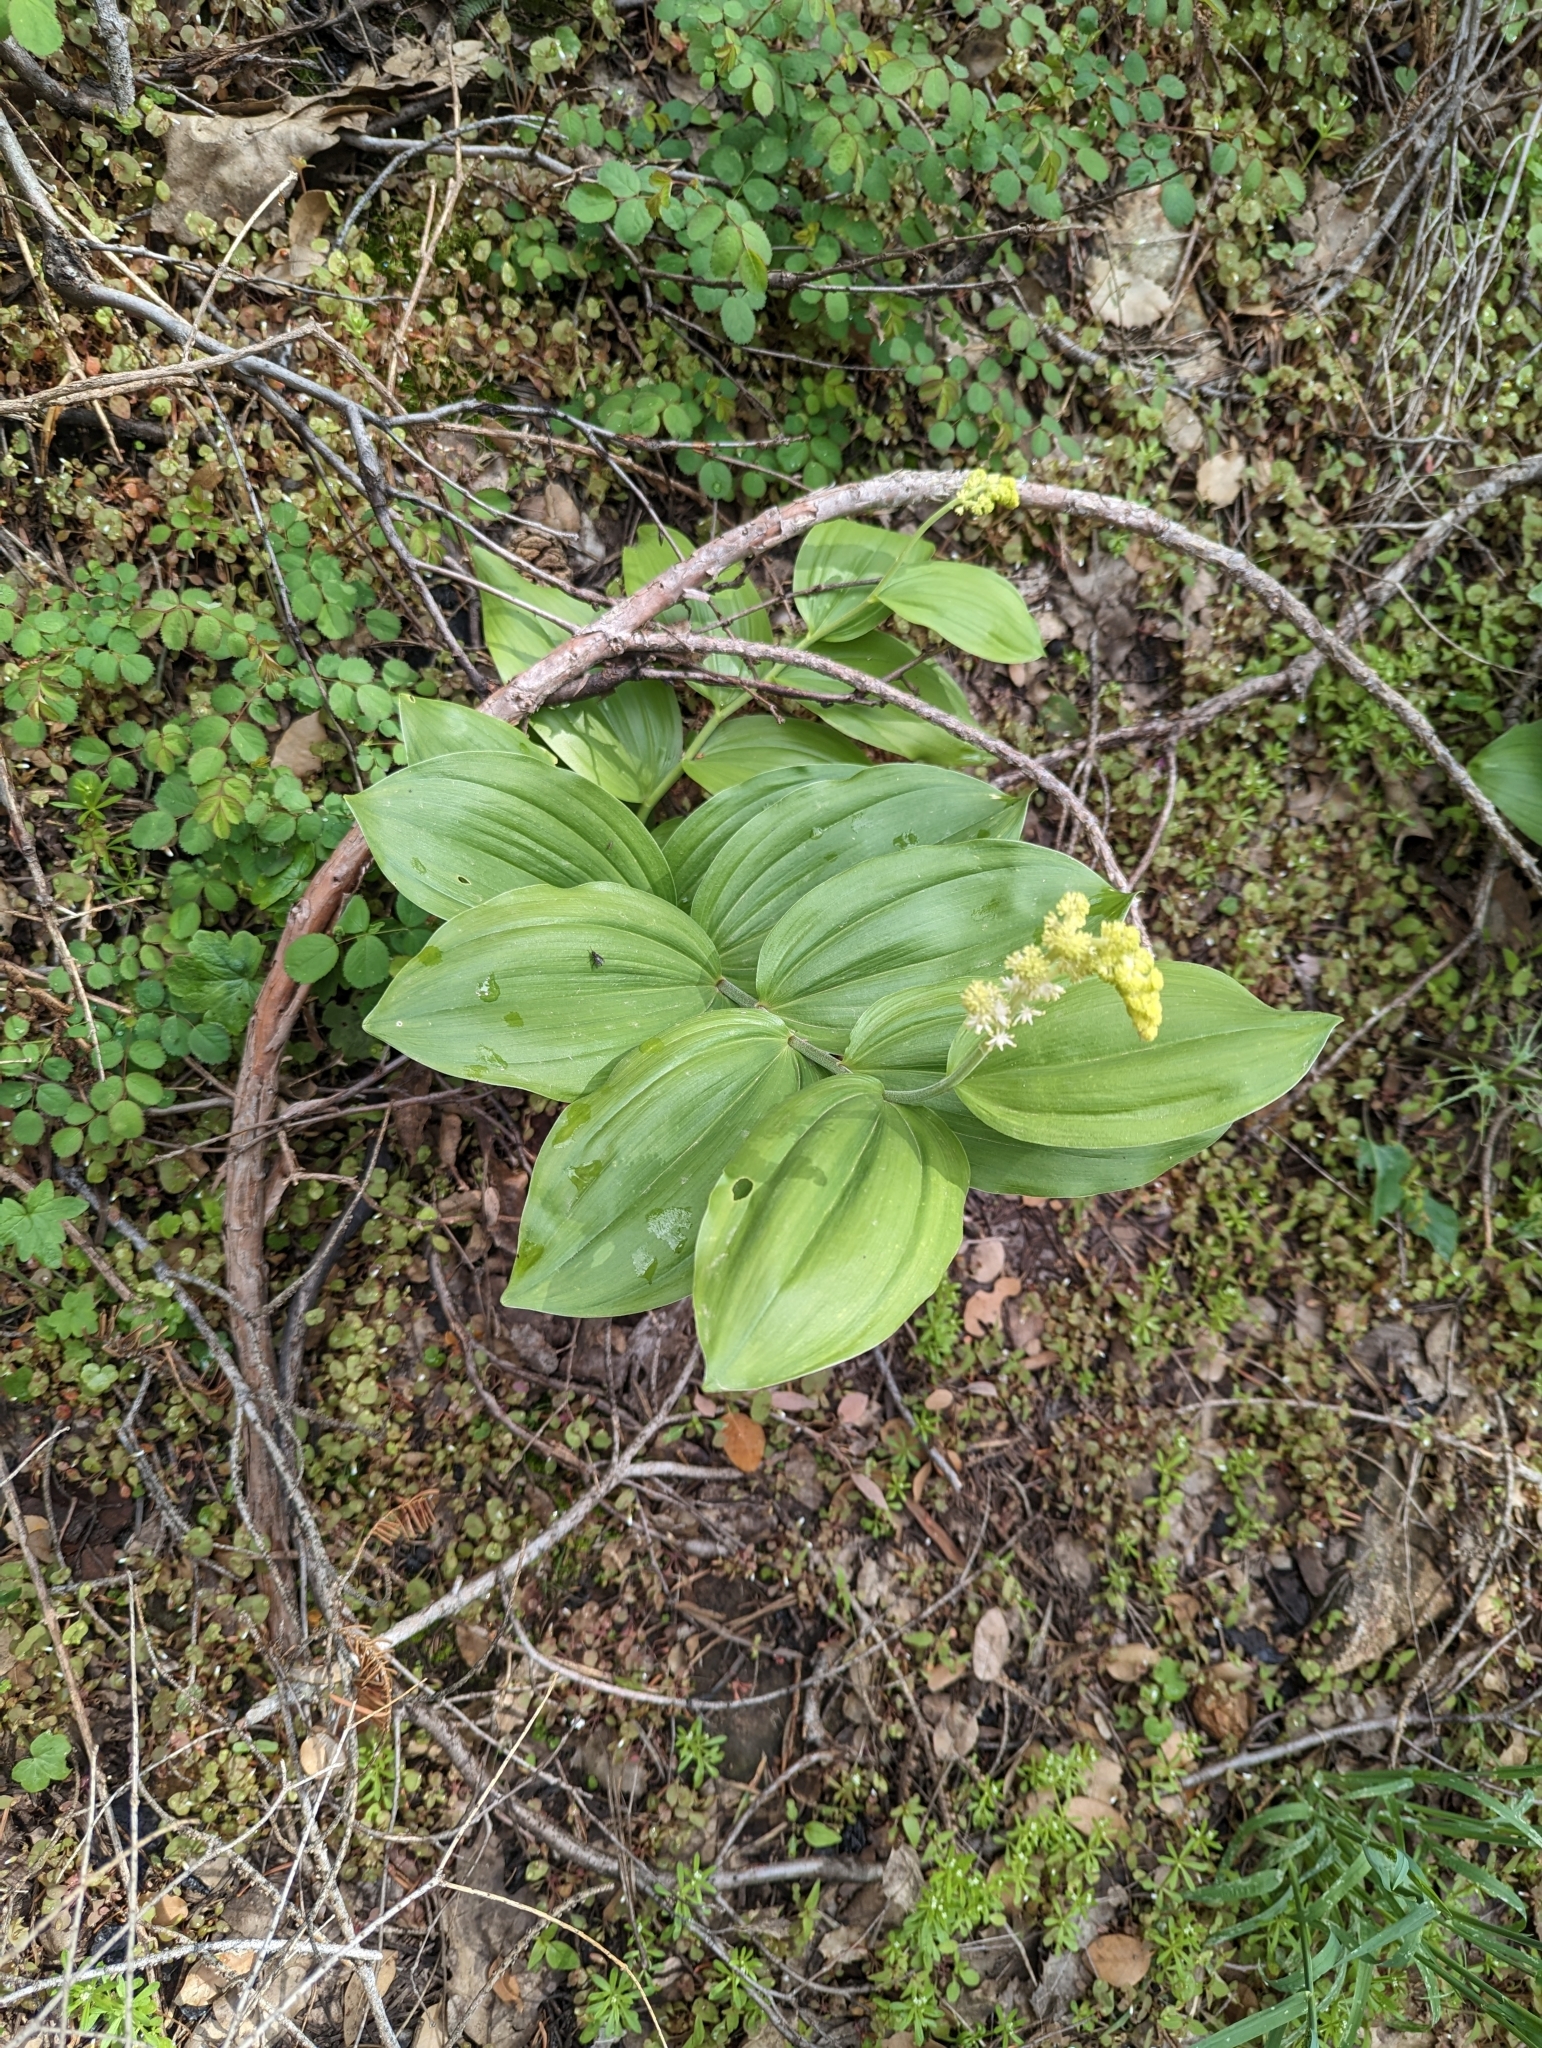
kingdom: Plantae
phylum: Tracheophyta
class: Liliopsida
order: Asparagales
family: Asparagaceae
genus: Maianthemum
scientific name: Maianthemum racemosum
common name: False spikenard
